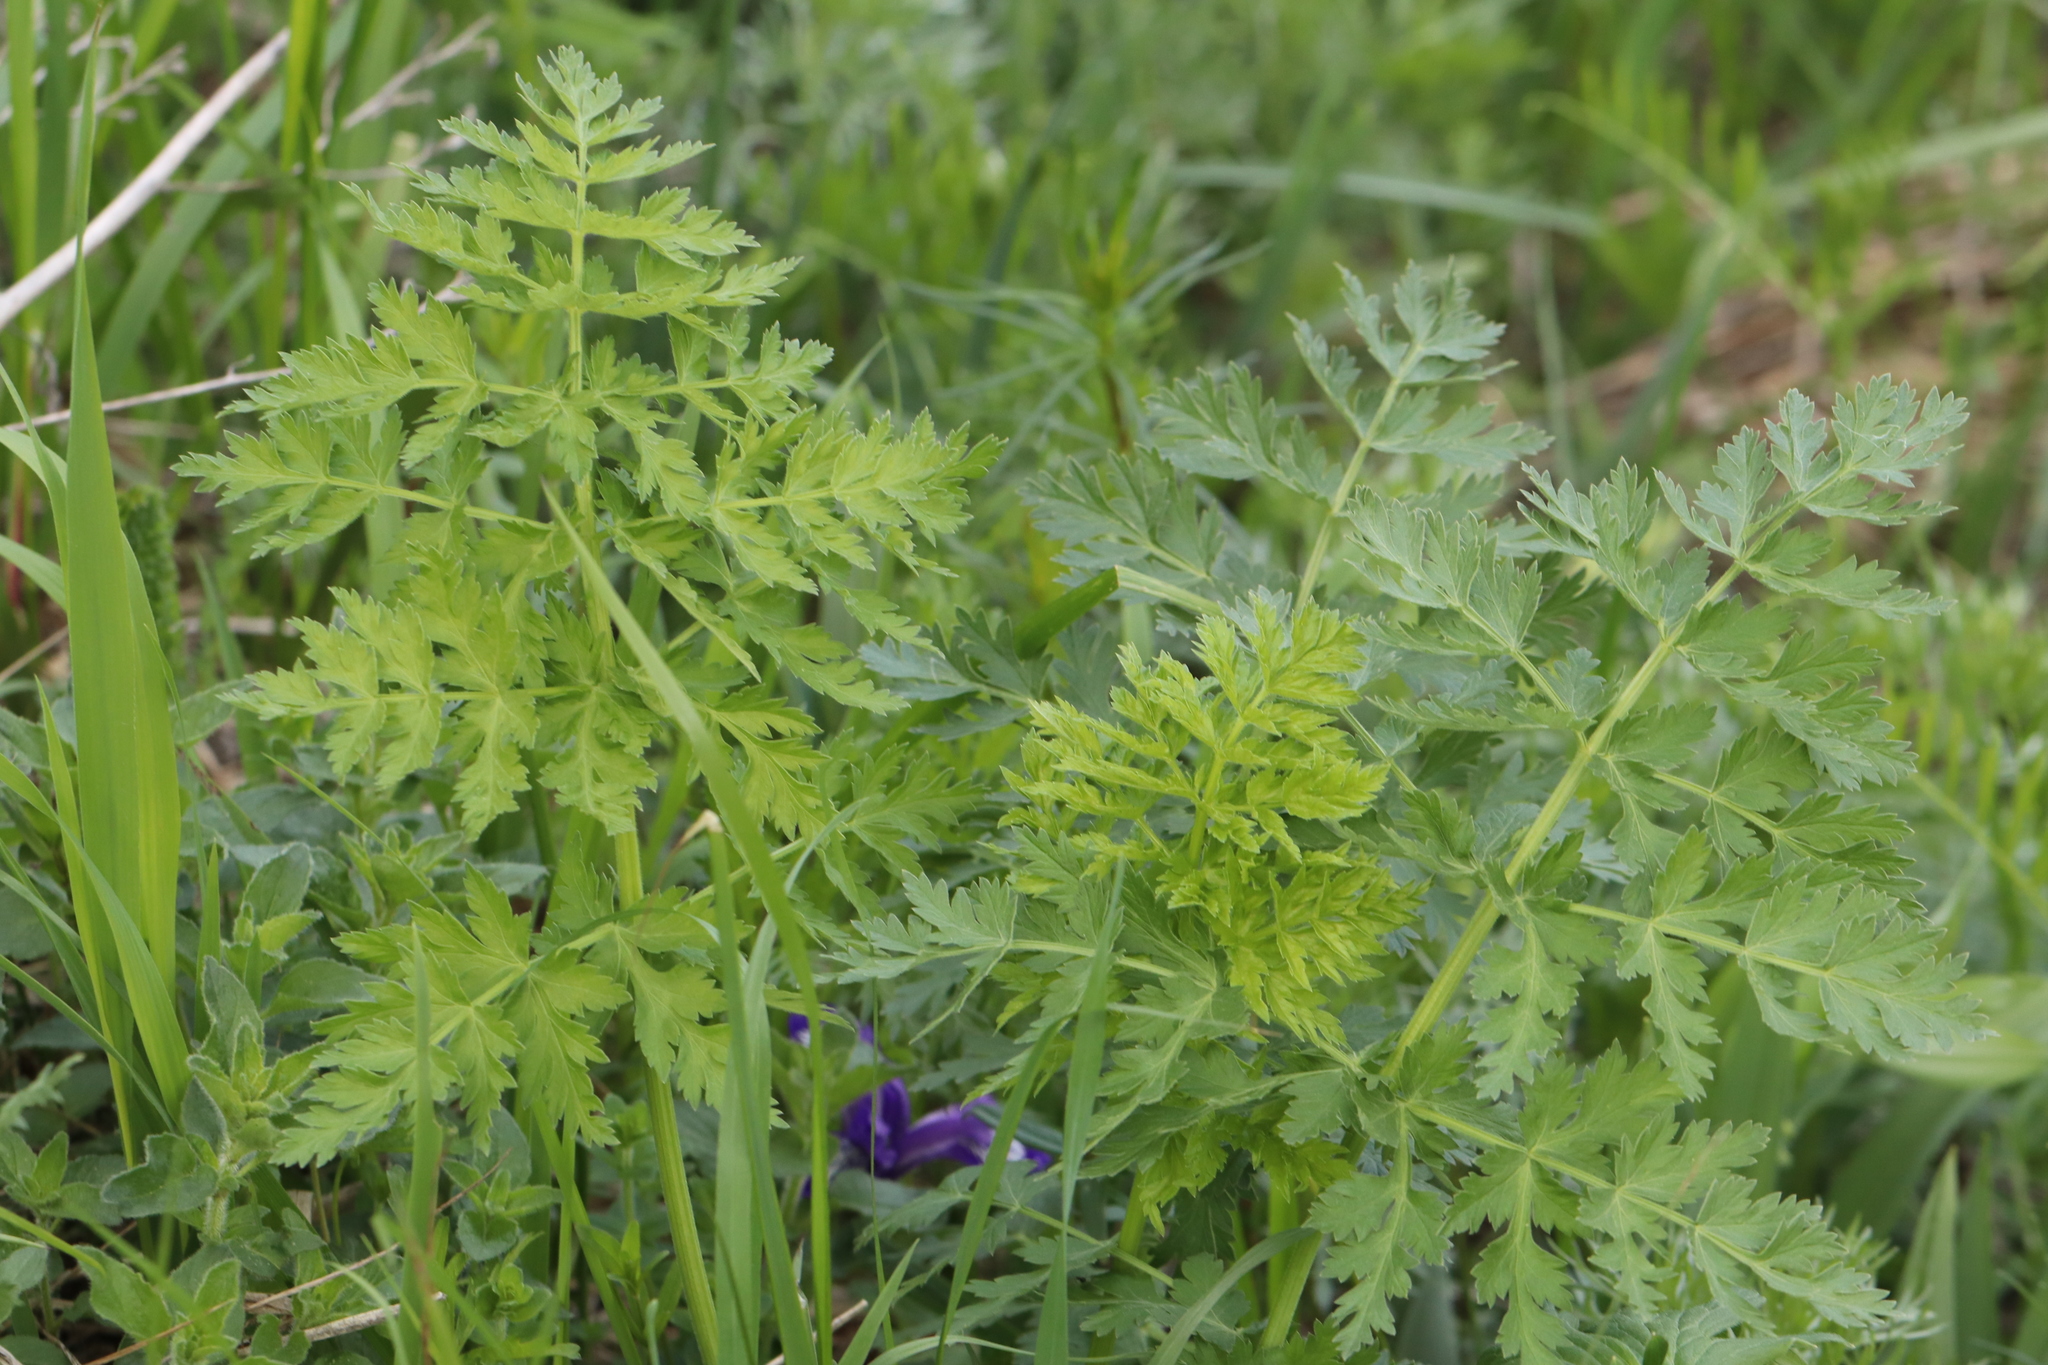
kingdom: Plantae
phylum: Tracheophyta
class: Magnoliopsida
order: Apiales
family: Apiaceae
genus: Pleurospermum
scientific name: Pleurospermum uralense
